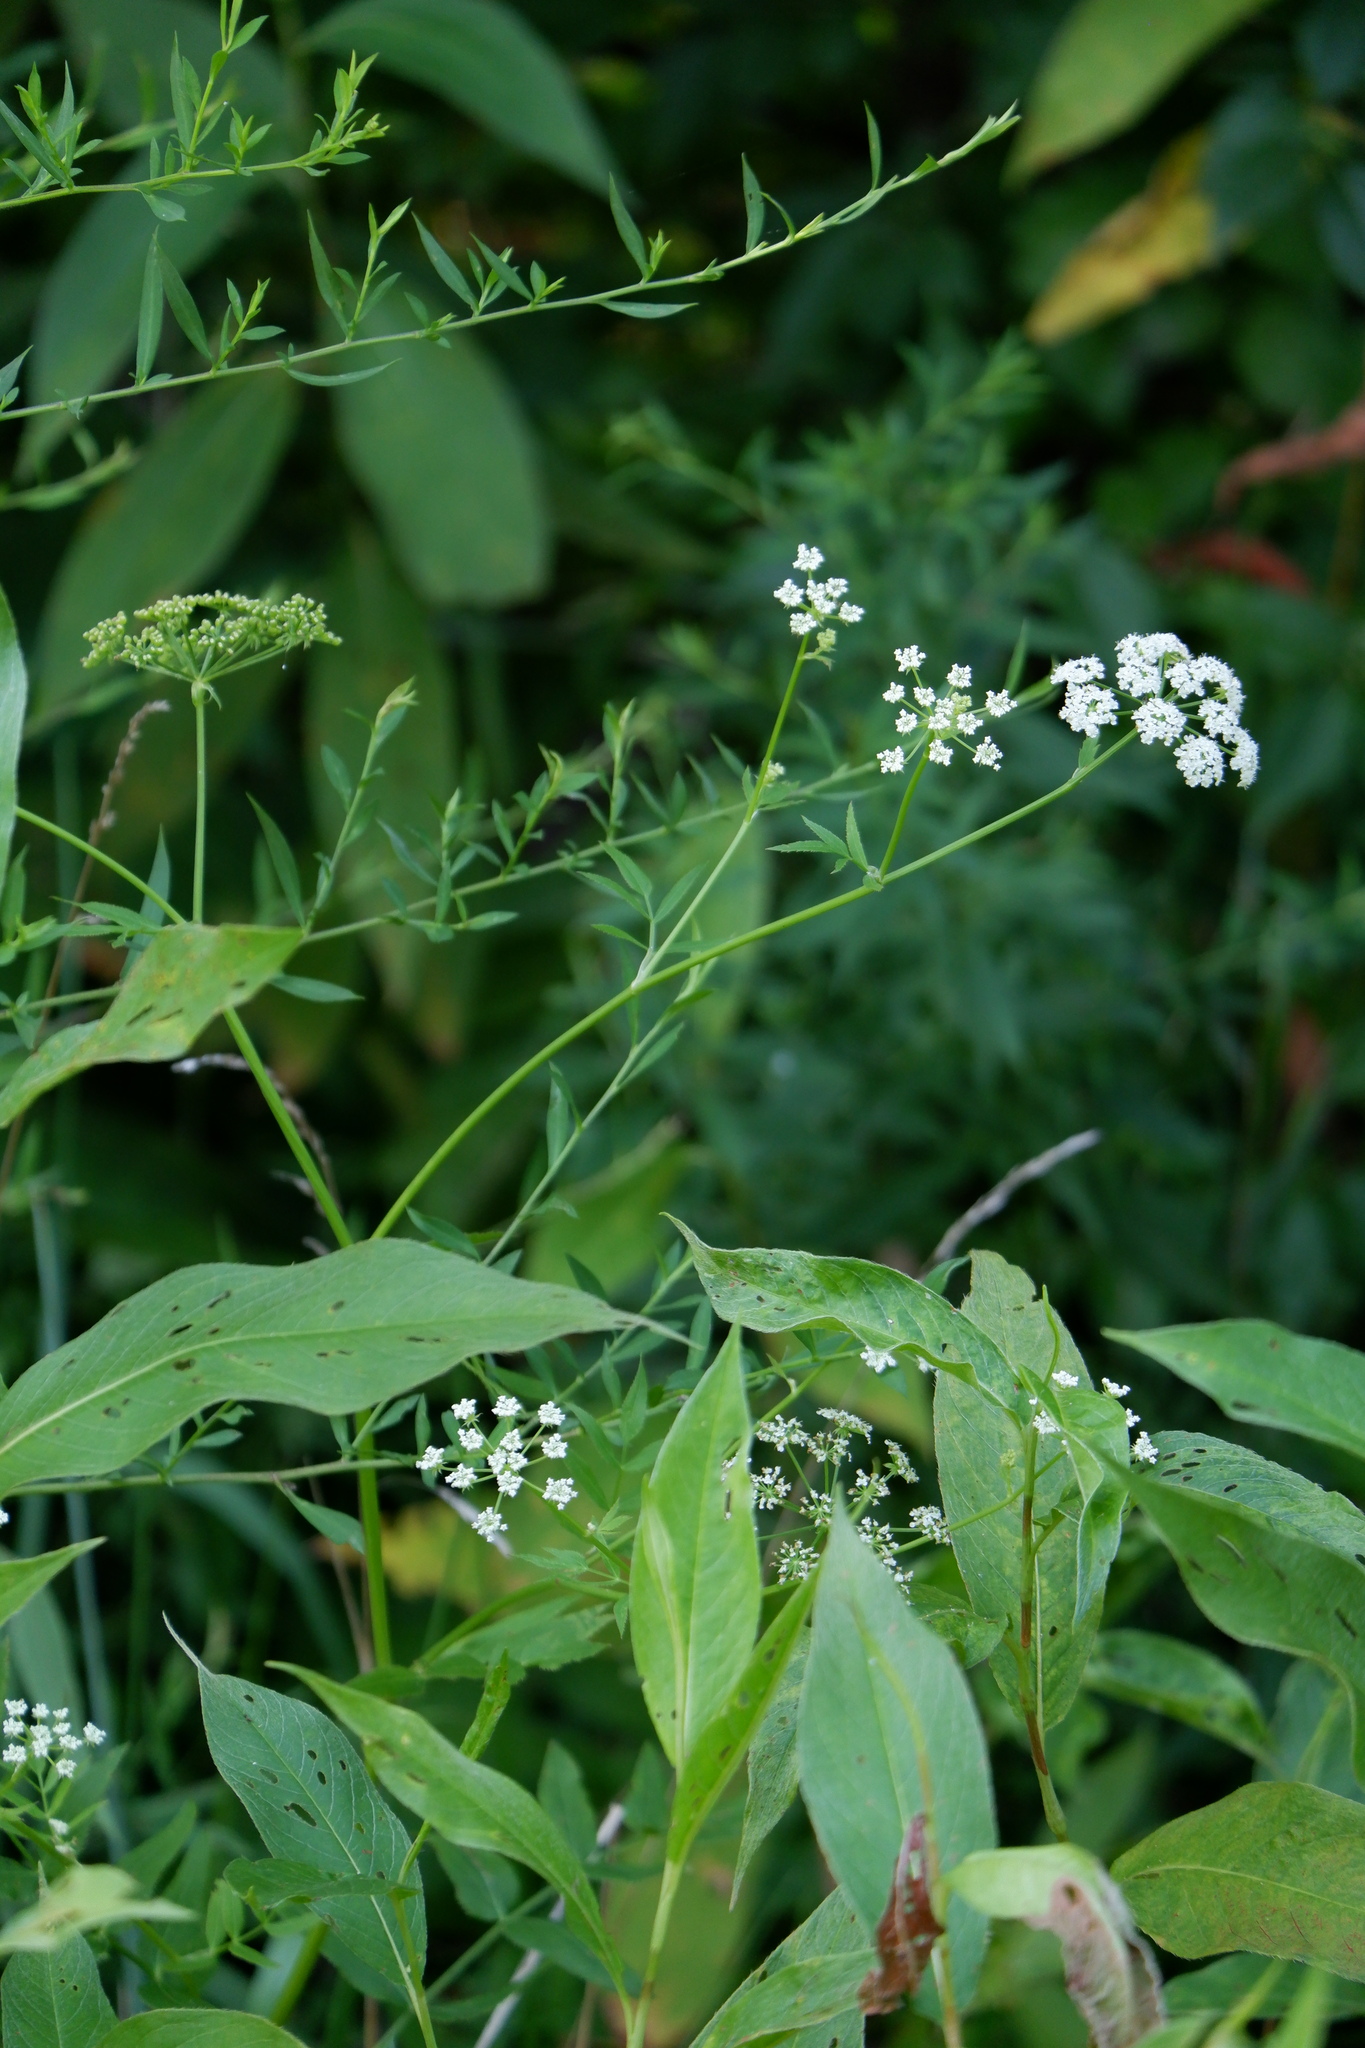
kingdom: Plantae
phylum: Tracheophyta
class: Magnoliopsida
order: Apiales
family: Apiaceae
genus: Sium
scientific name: Sium suave
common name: Hemlock water-parsnip
